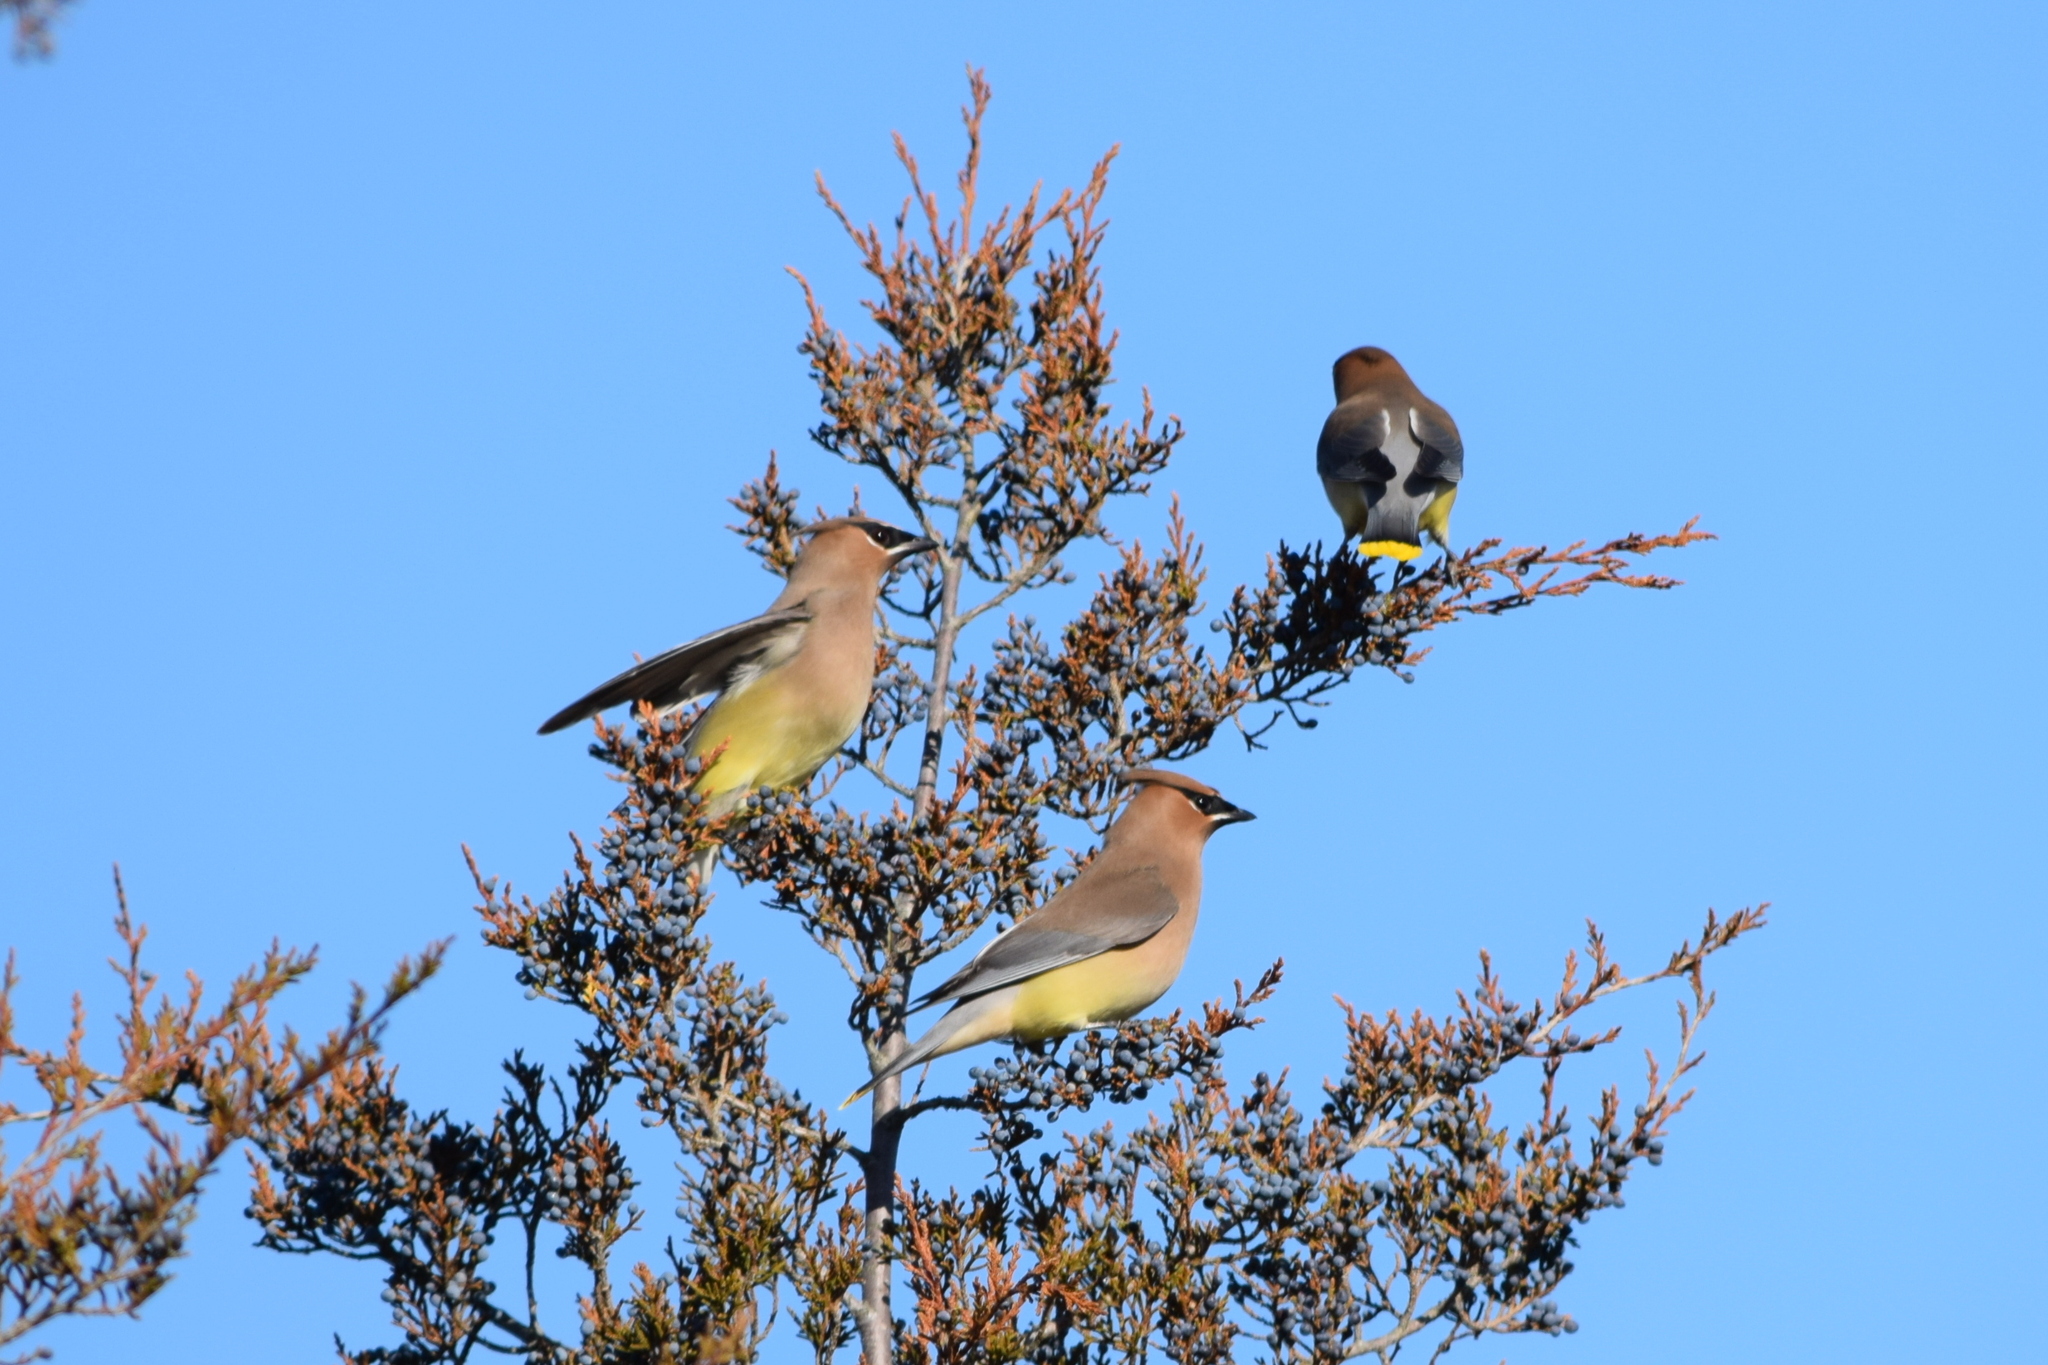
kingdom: Animalia
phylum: Chordata
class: Aves
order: Passeriformes
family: Bombycillidae
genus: Bombycilla
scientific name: Bombycilla cedrorum
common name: Cedar waxwing
